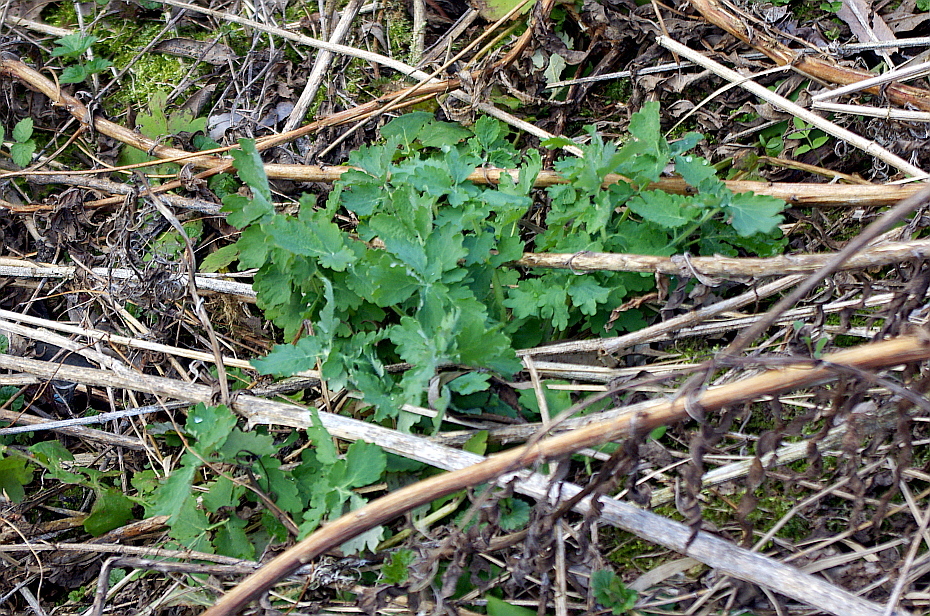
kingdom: Plantae
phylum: Tracheophyta
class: Magnoliopsida
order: Ranunculales
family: Papaveraceae
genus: Chelidonium
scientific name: Chelidonium majus
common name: Greater celandine
